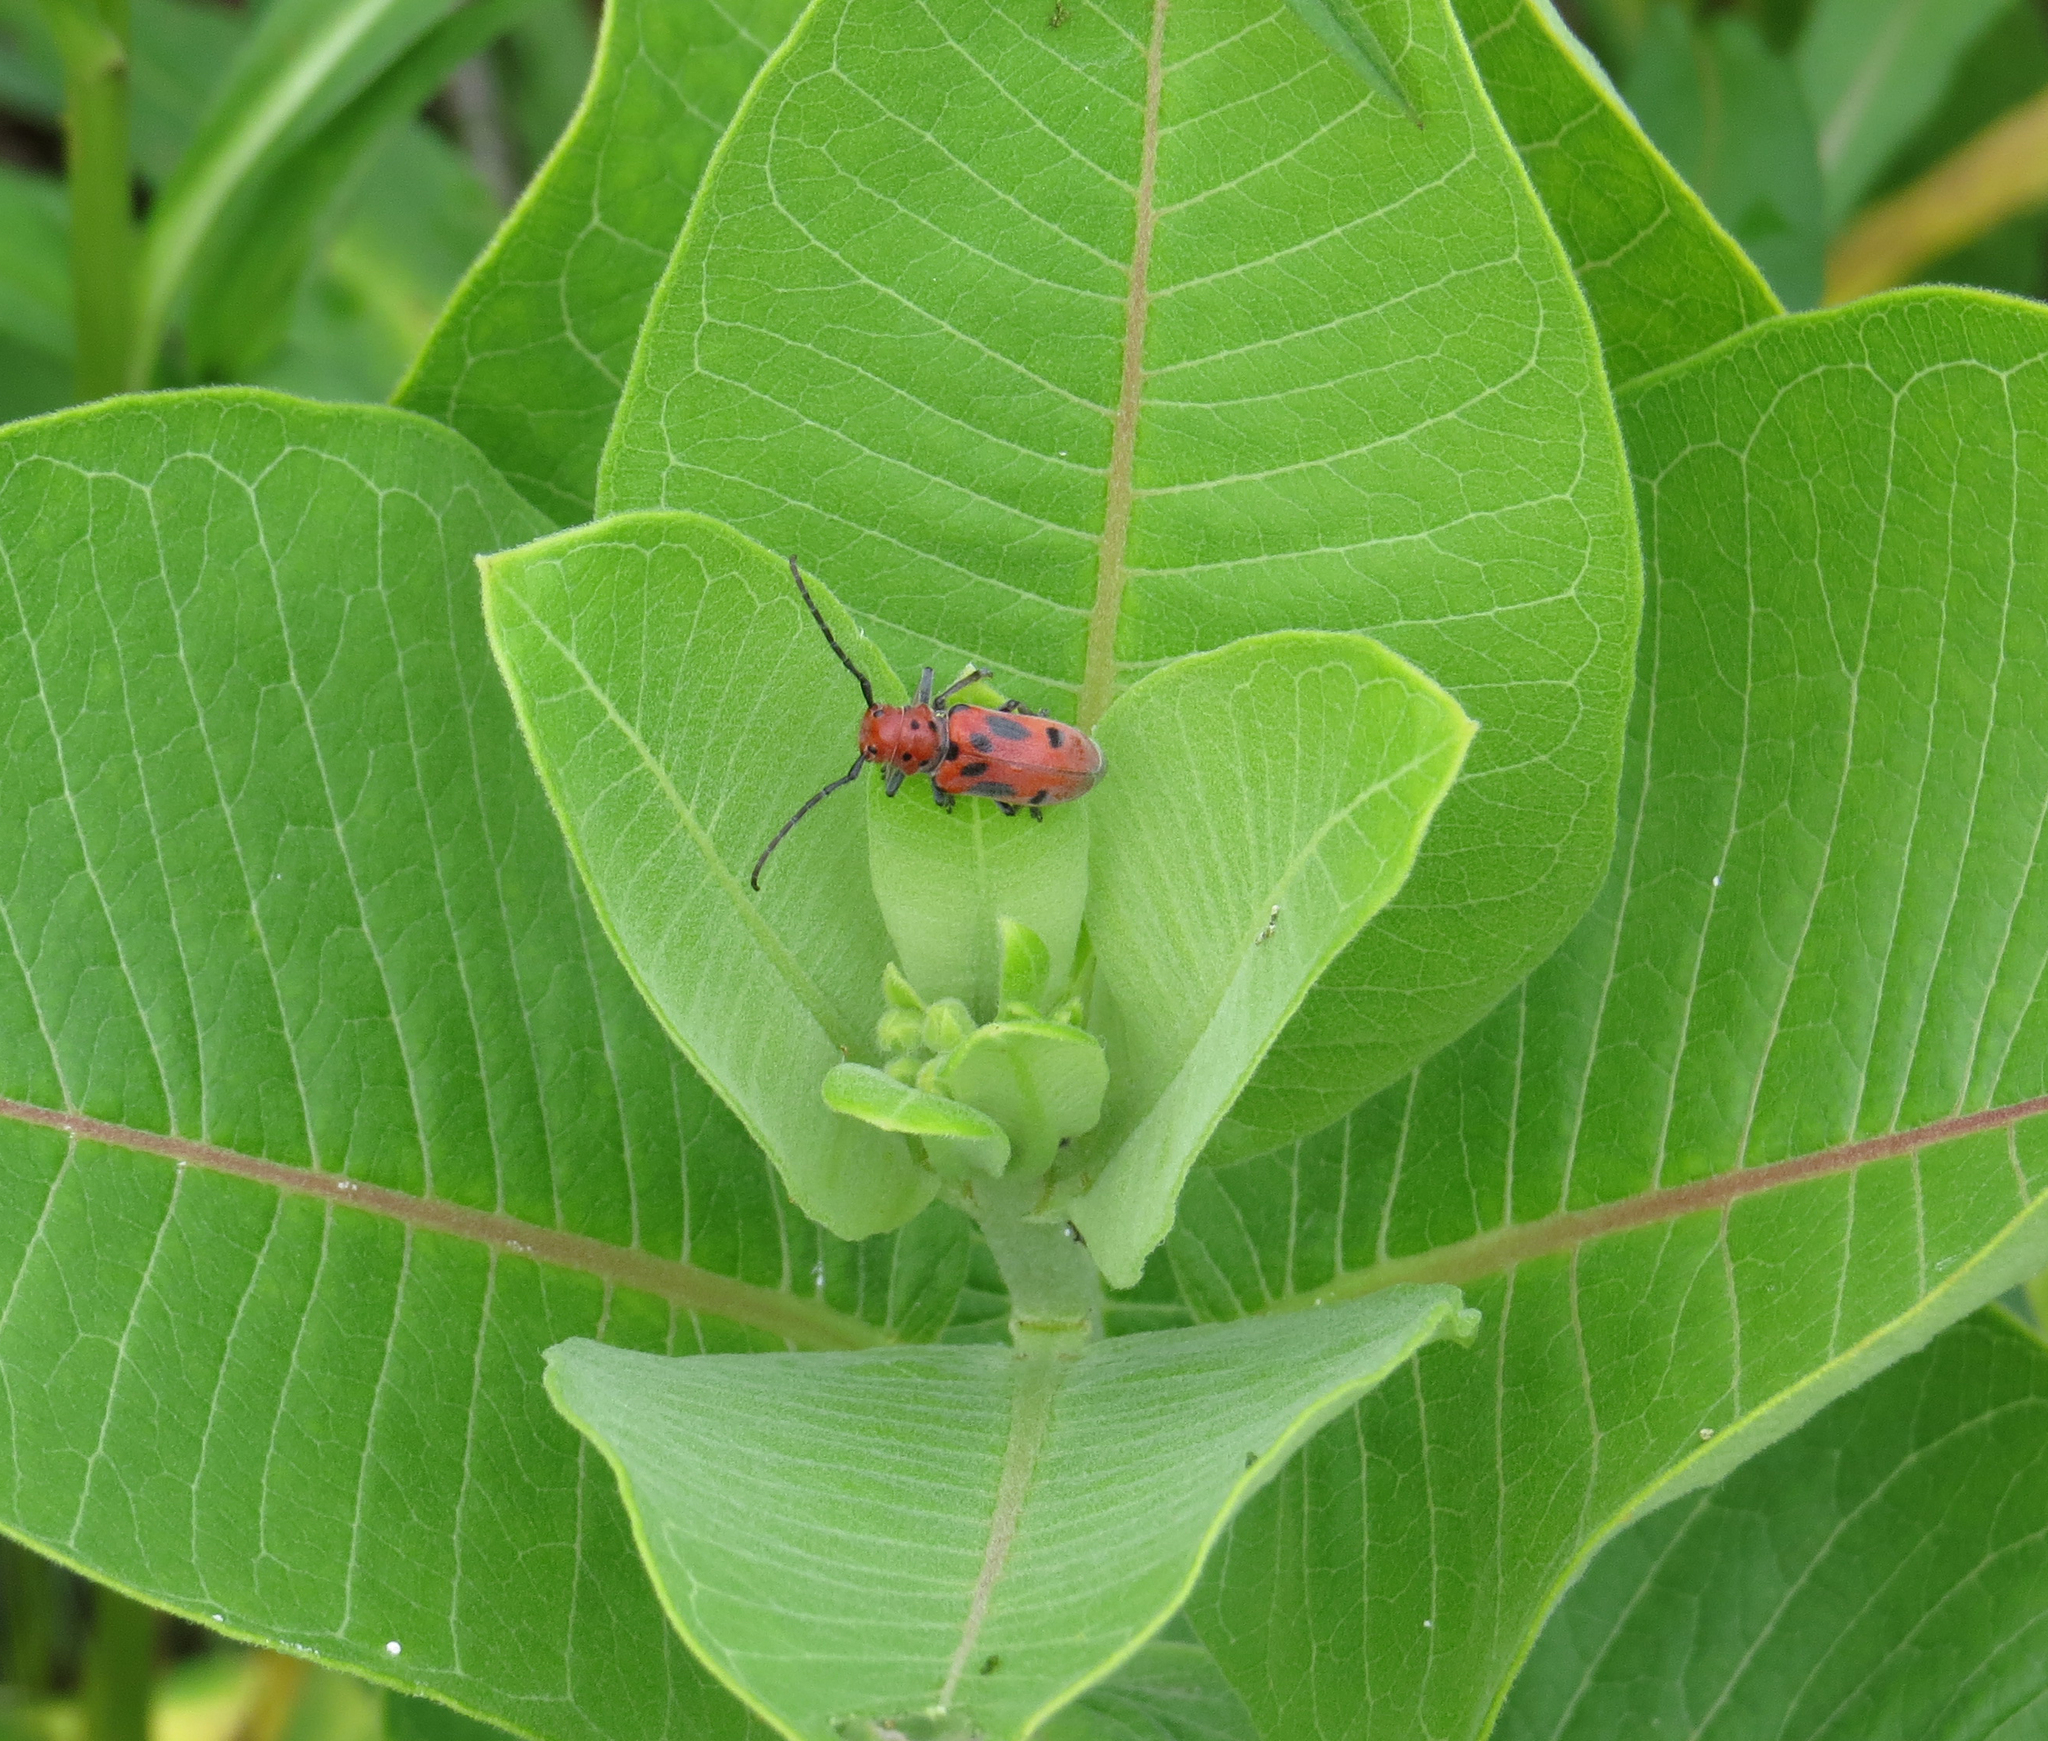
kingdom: Animalia
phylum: Arthropoda
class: Insecta
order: Coleoptera
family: Cerambycidae
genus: Tetraopes
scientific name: Tetraopes tetrophthalmus
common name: Red milkweed beetle
